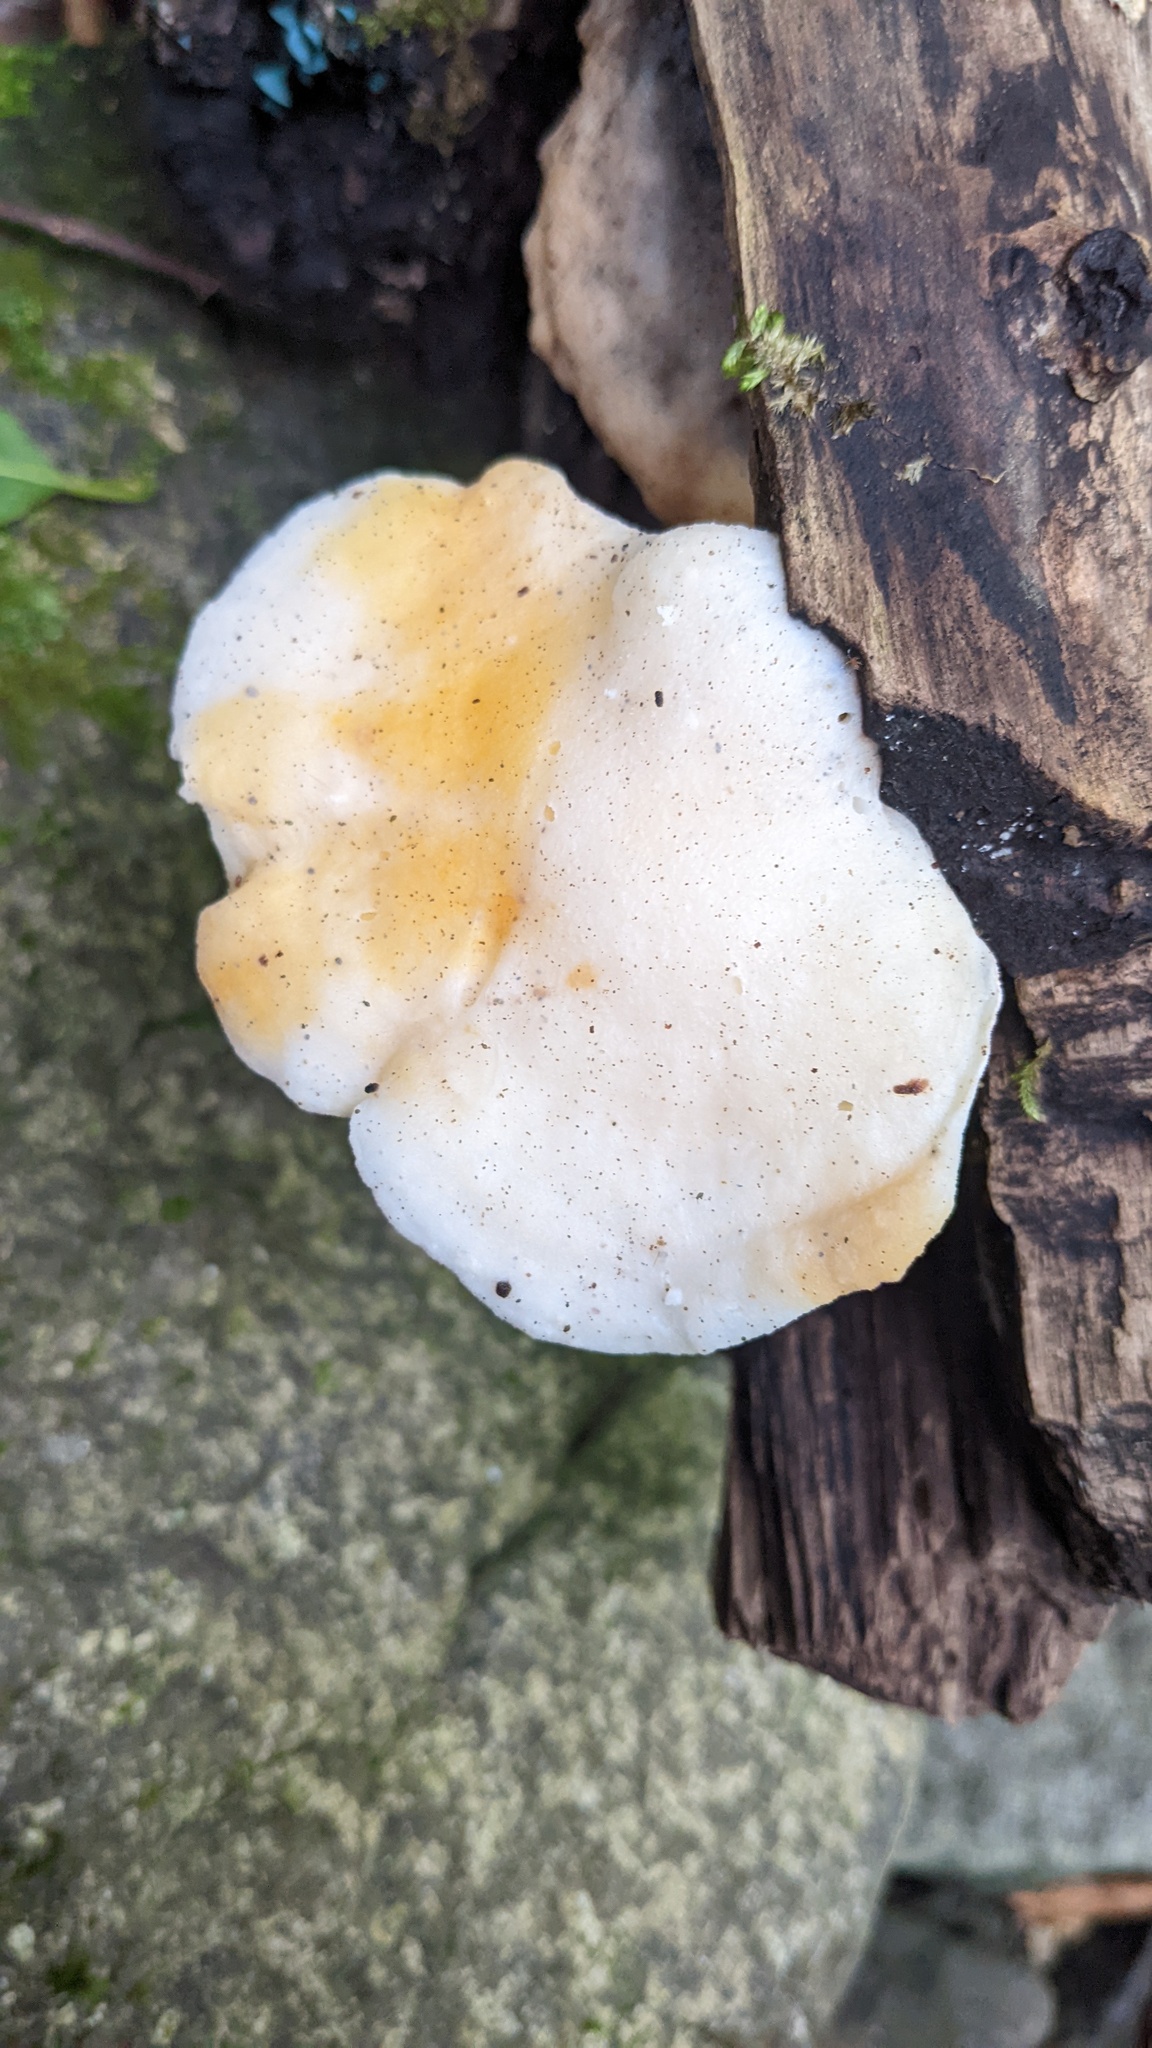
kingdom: Fungi
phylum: Basidiomycota
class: Agaricomycetes
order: Polyporales
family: Incrustoporiaceae
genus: Tyromyces
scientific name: Tyromyces chioneus
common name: White cheese polypore
